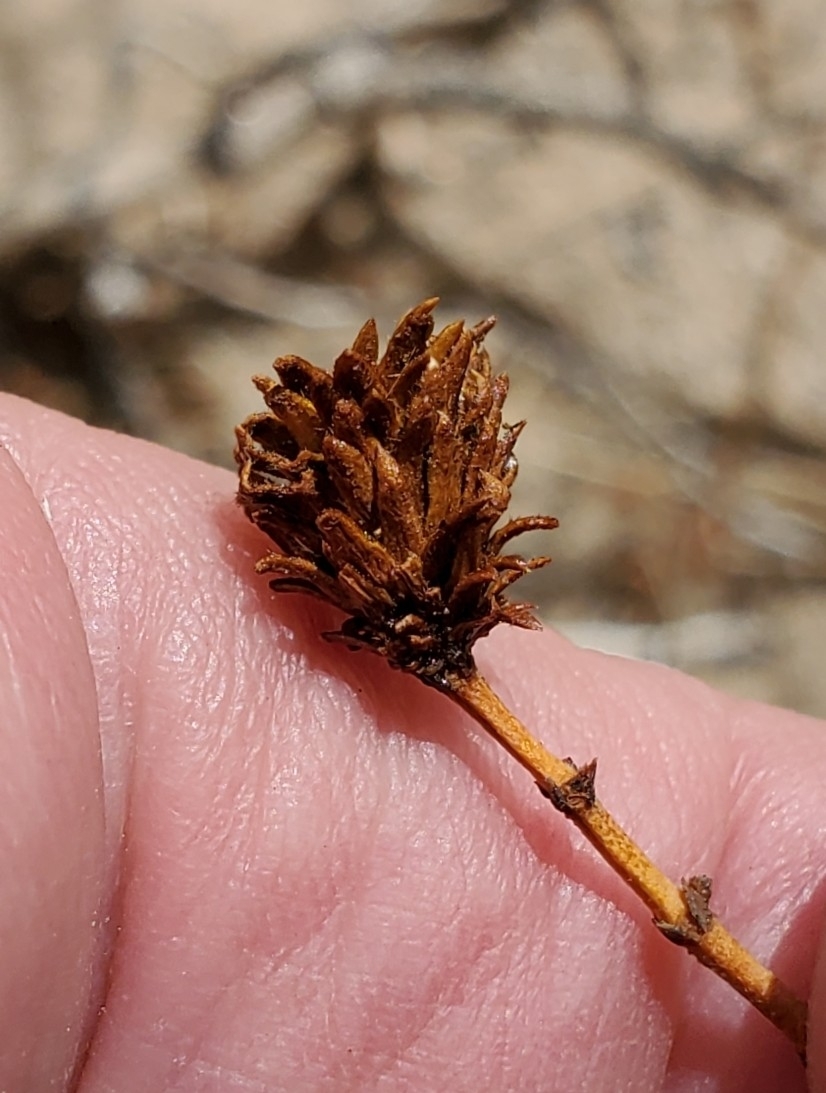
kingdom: Animalia
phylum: Arthropoda
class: Insecta
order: Diptera
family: Cecidomyiidae
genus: Asphondylia
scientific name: Asphondylia rosetta
